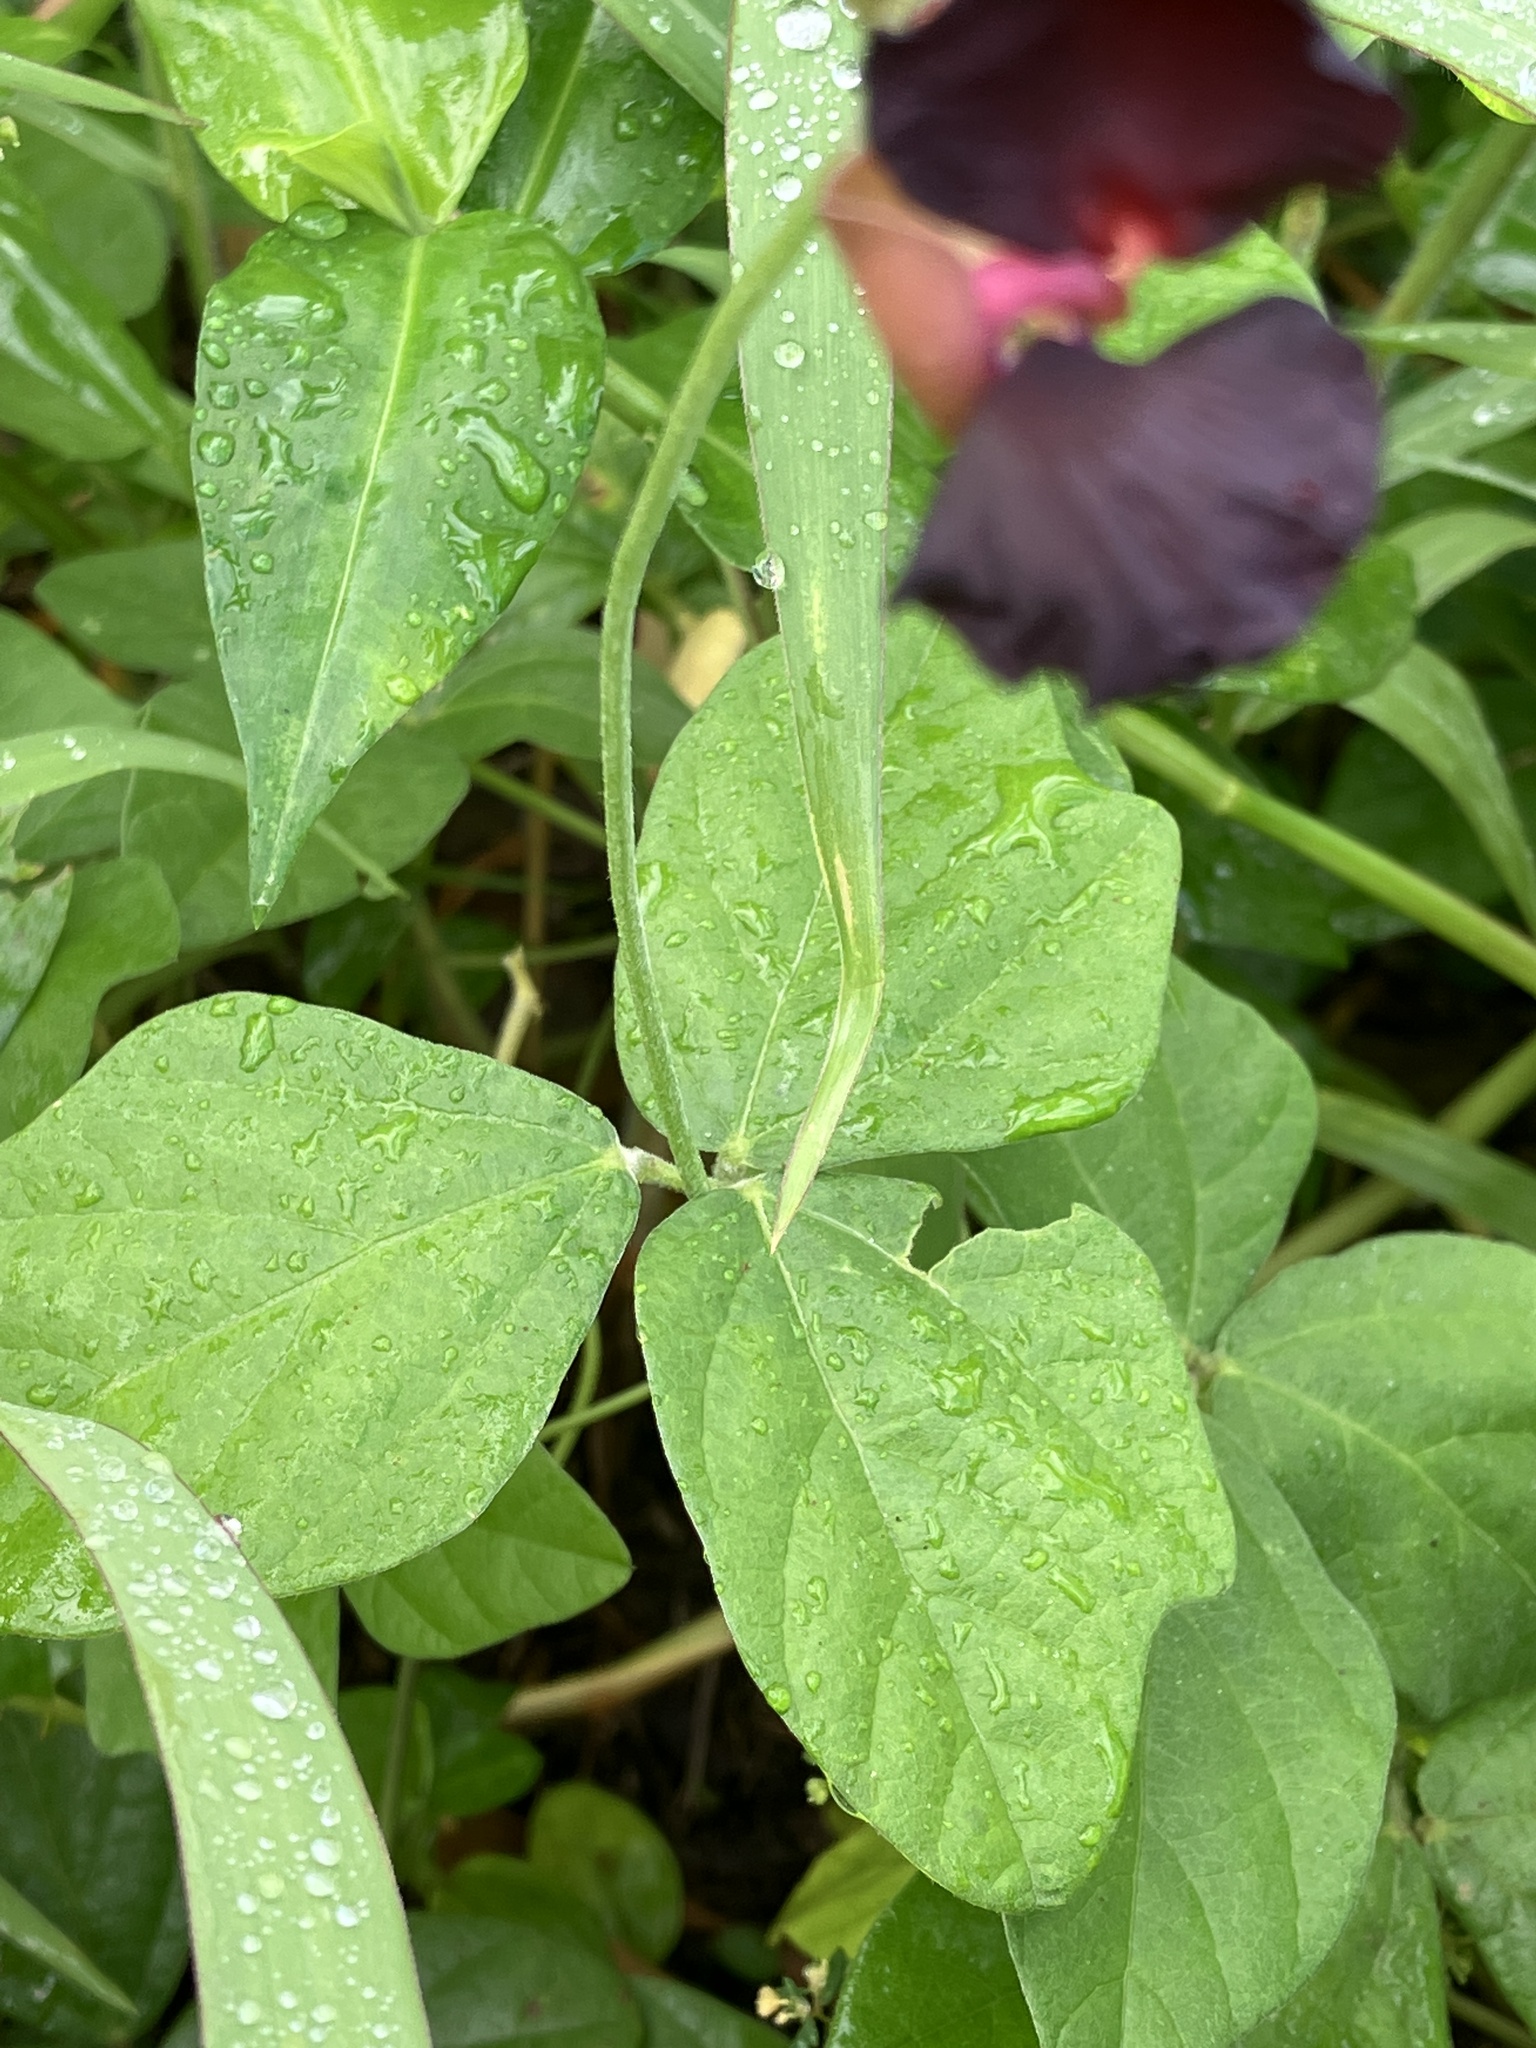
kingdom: Plantae
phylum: Tracheophyta
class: Magnoliopsida
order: Fabales
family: Fabaceae
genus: Macroptilium
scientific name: Macroptilium atropurpureum
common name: Purple bushbean
